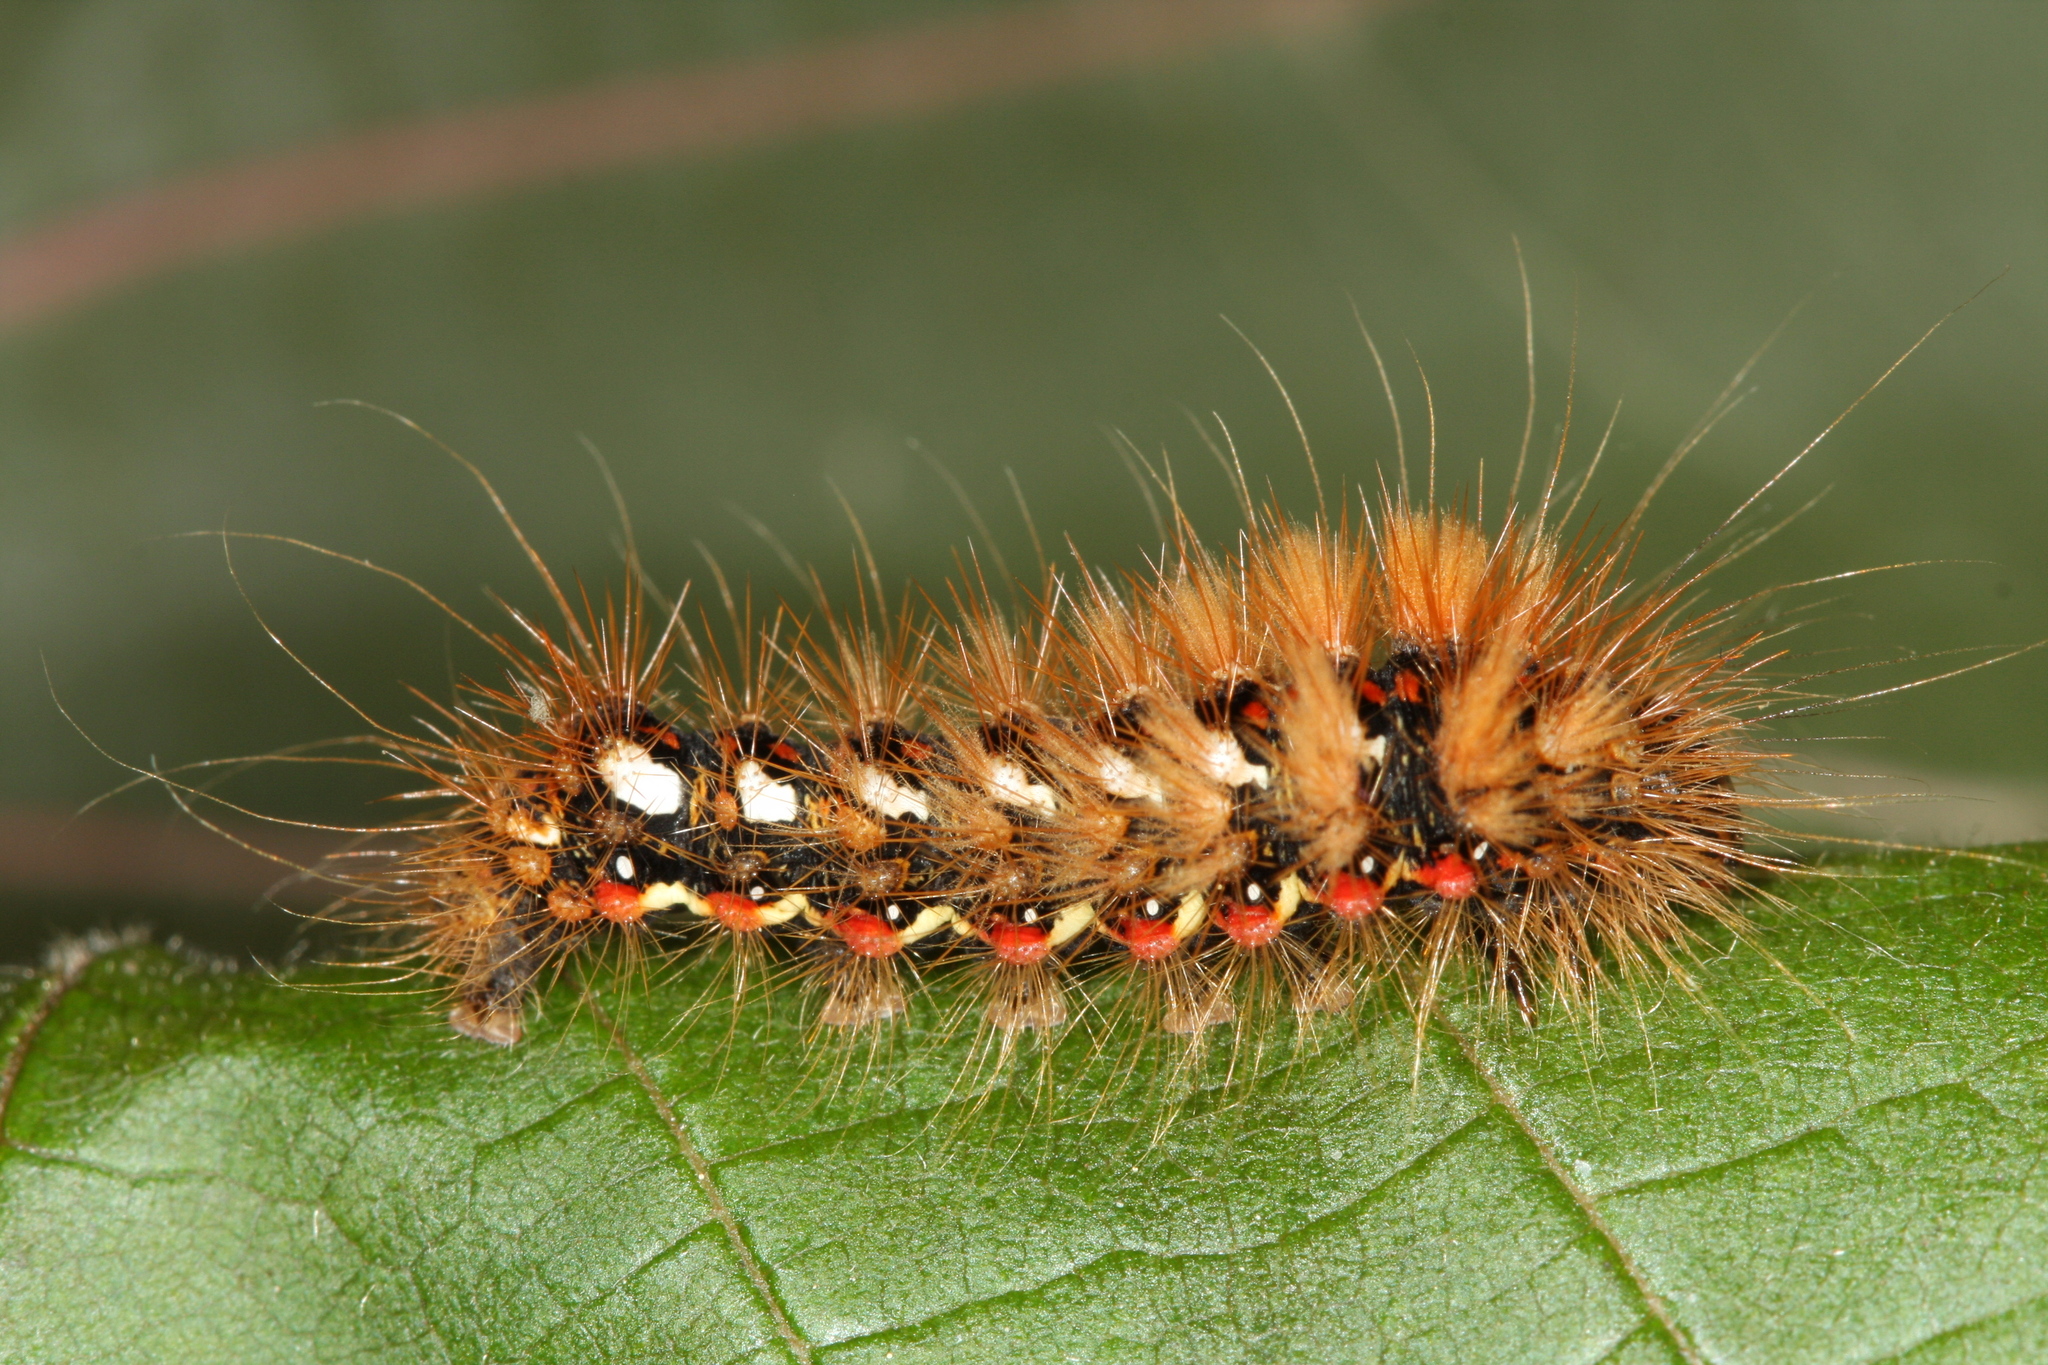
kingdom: Animalia
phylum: Arthropoda
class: Insecta
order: Lepidoptera
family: Noctuidae
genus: Acronicta
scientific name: Acronicta rumicis
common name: Knot grass
